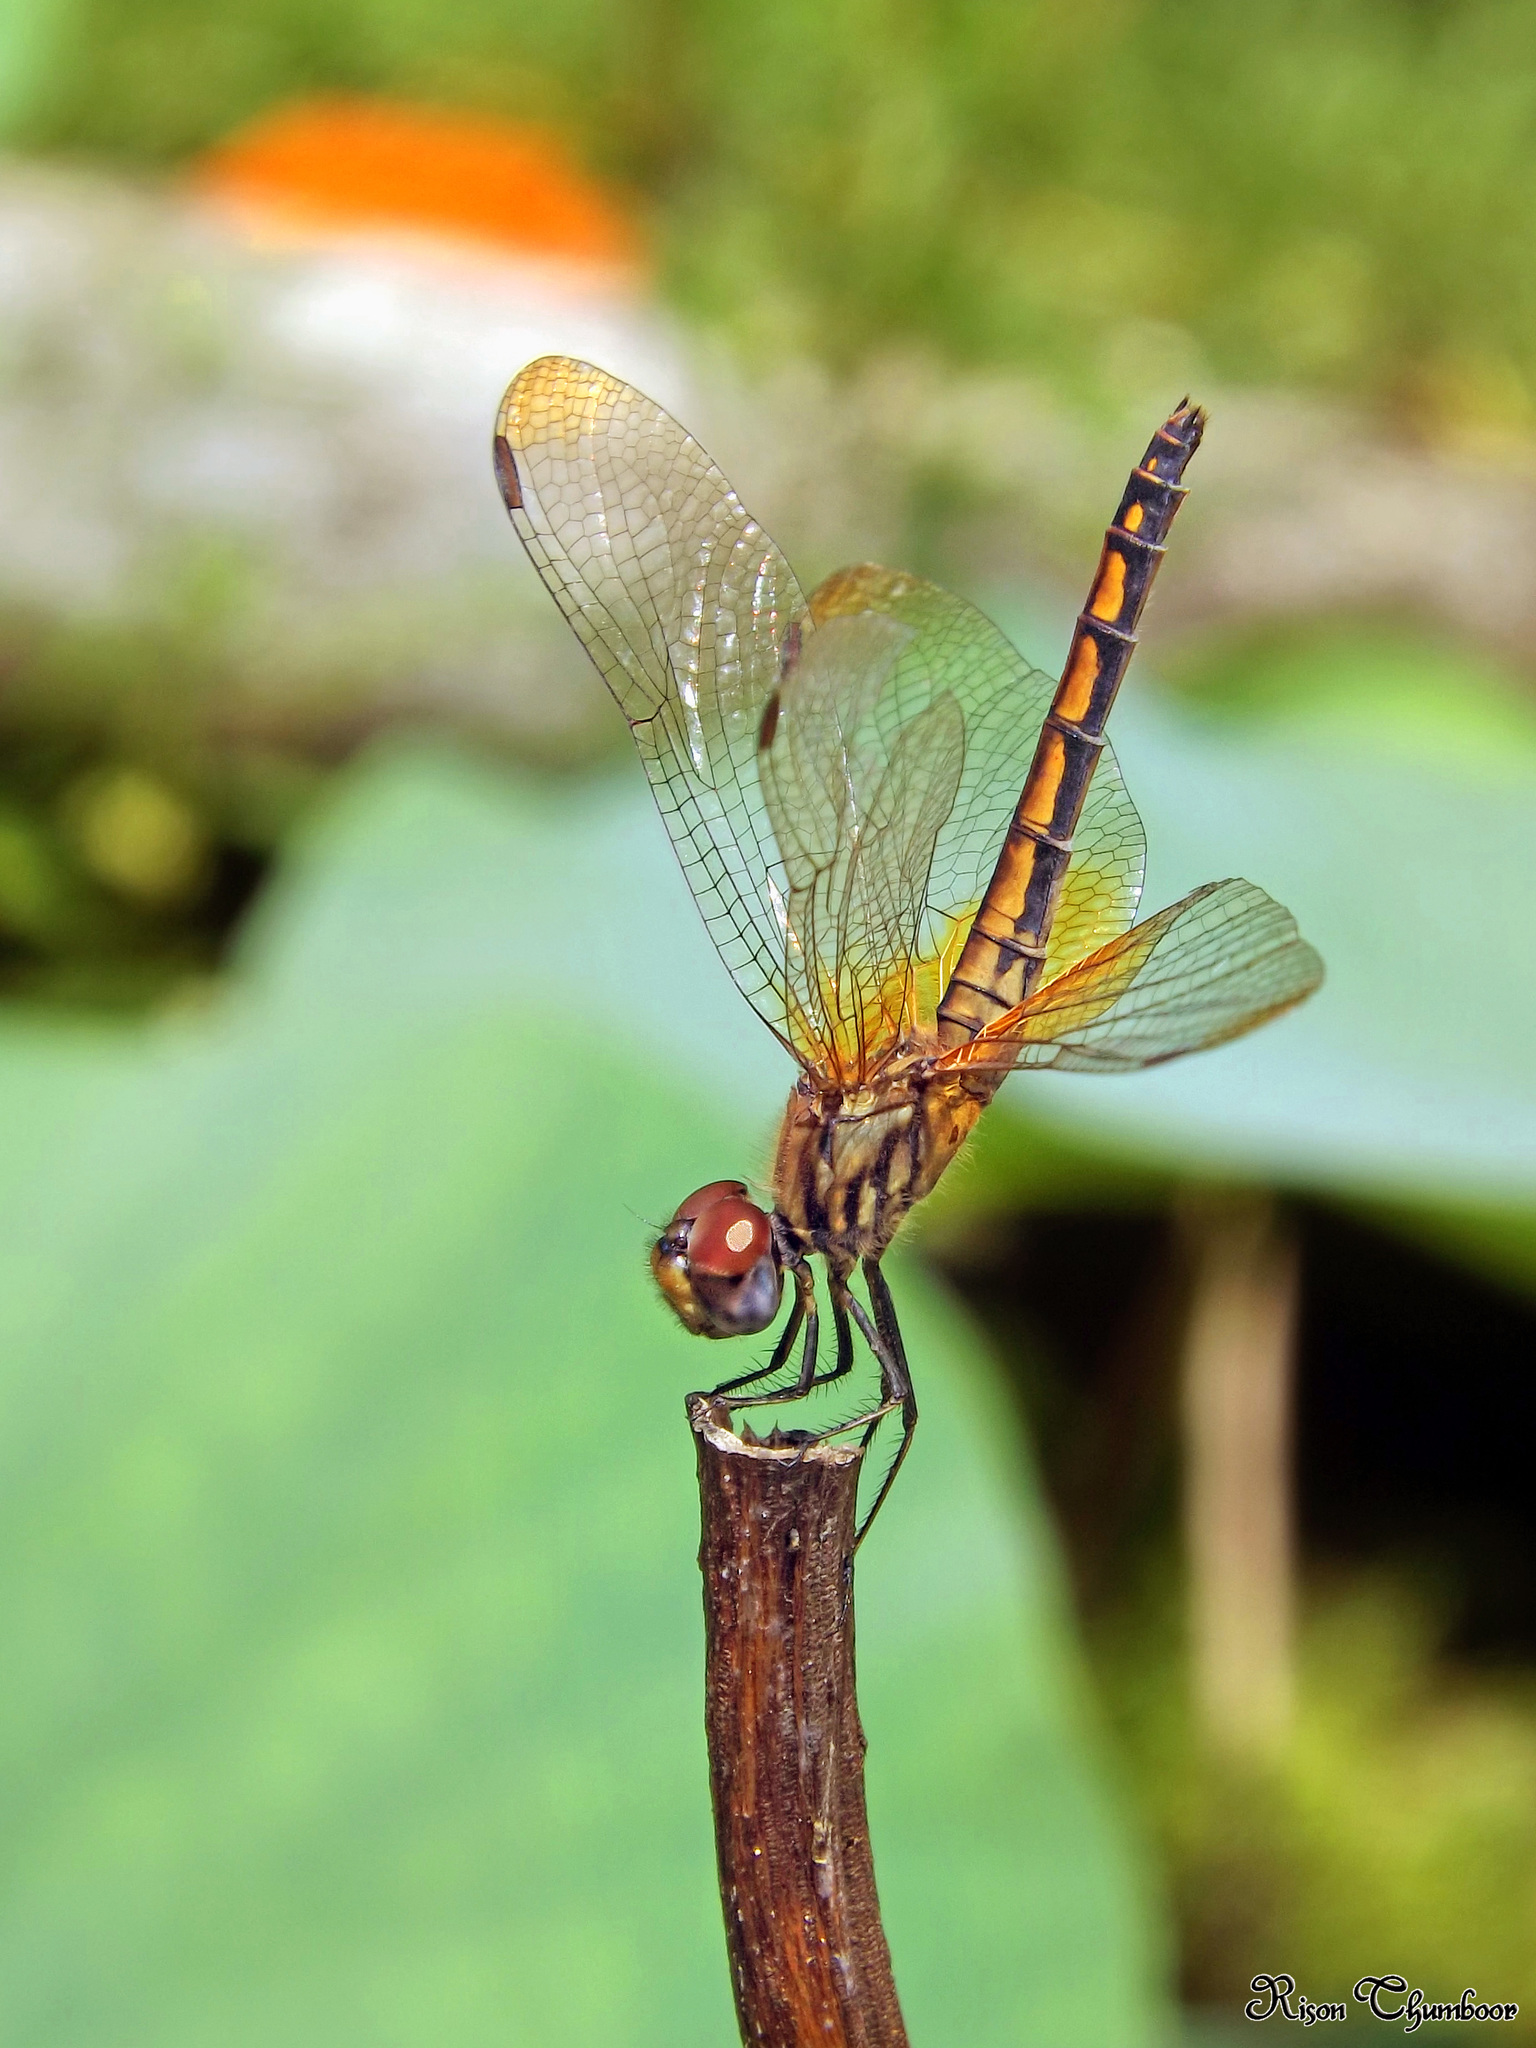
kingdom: Animalia
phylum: Arthropoda
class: Insecta
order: Odonata
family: Libellulidae
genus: Trithemis
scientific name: Trithemis aurora
